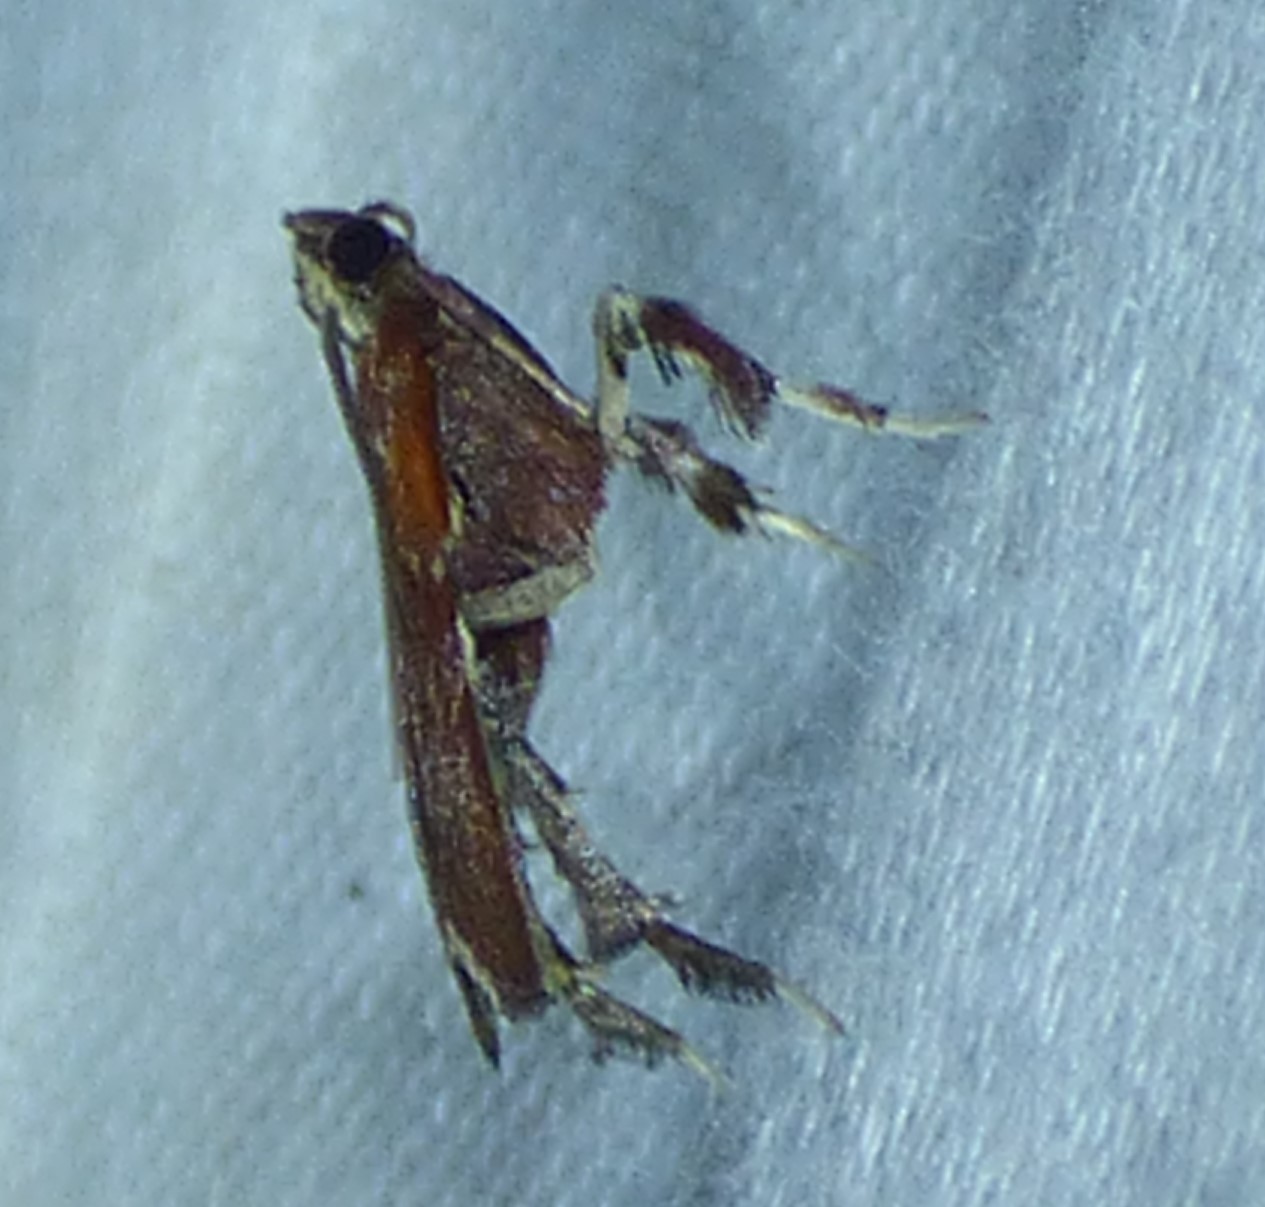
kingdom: Animalia
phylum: Arthropoda
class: Insecta
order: Lepidoptera
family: Pyralidae
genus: Galasa
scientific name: Galasa nigrinodis
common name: Boxwood leaftier moth
